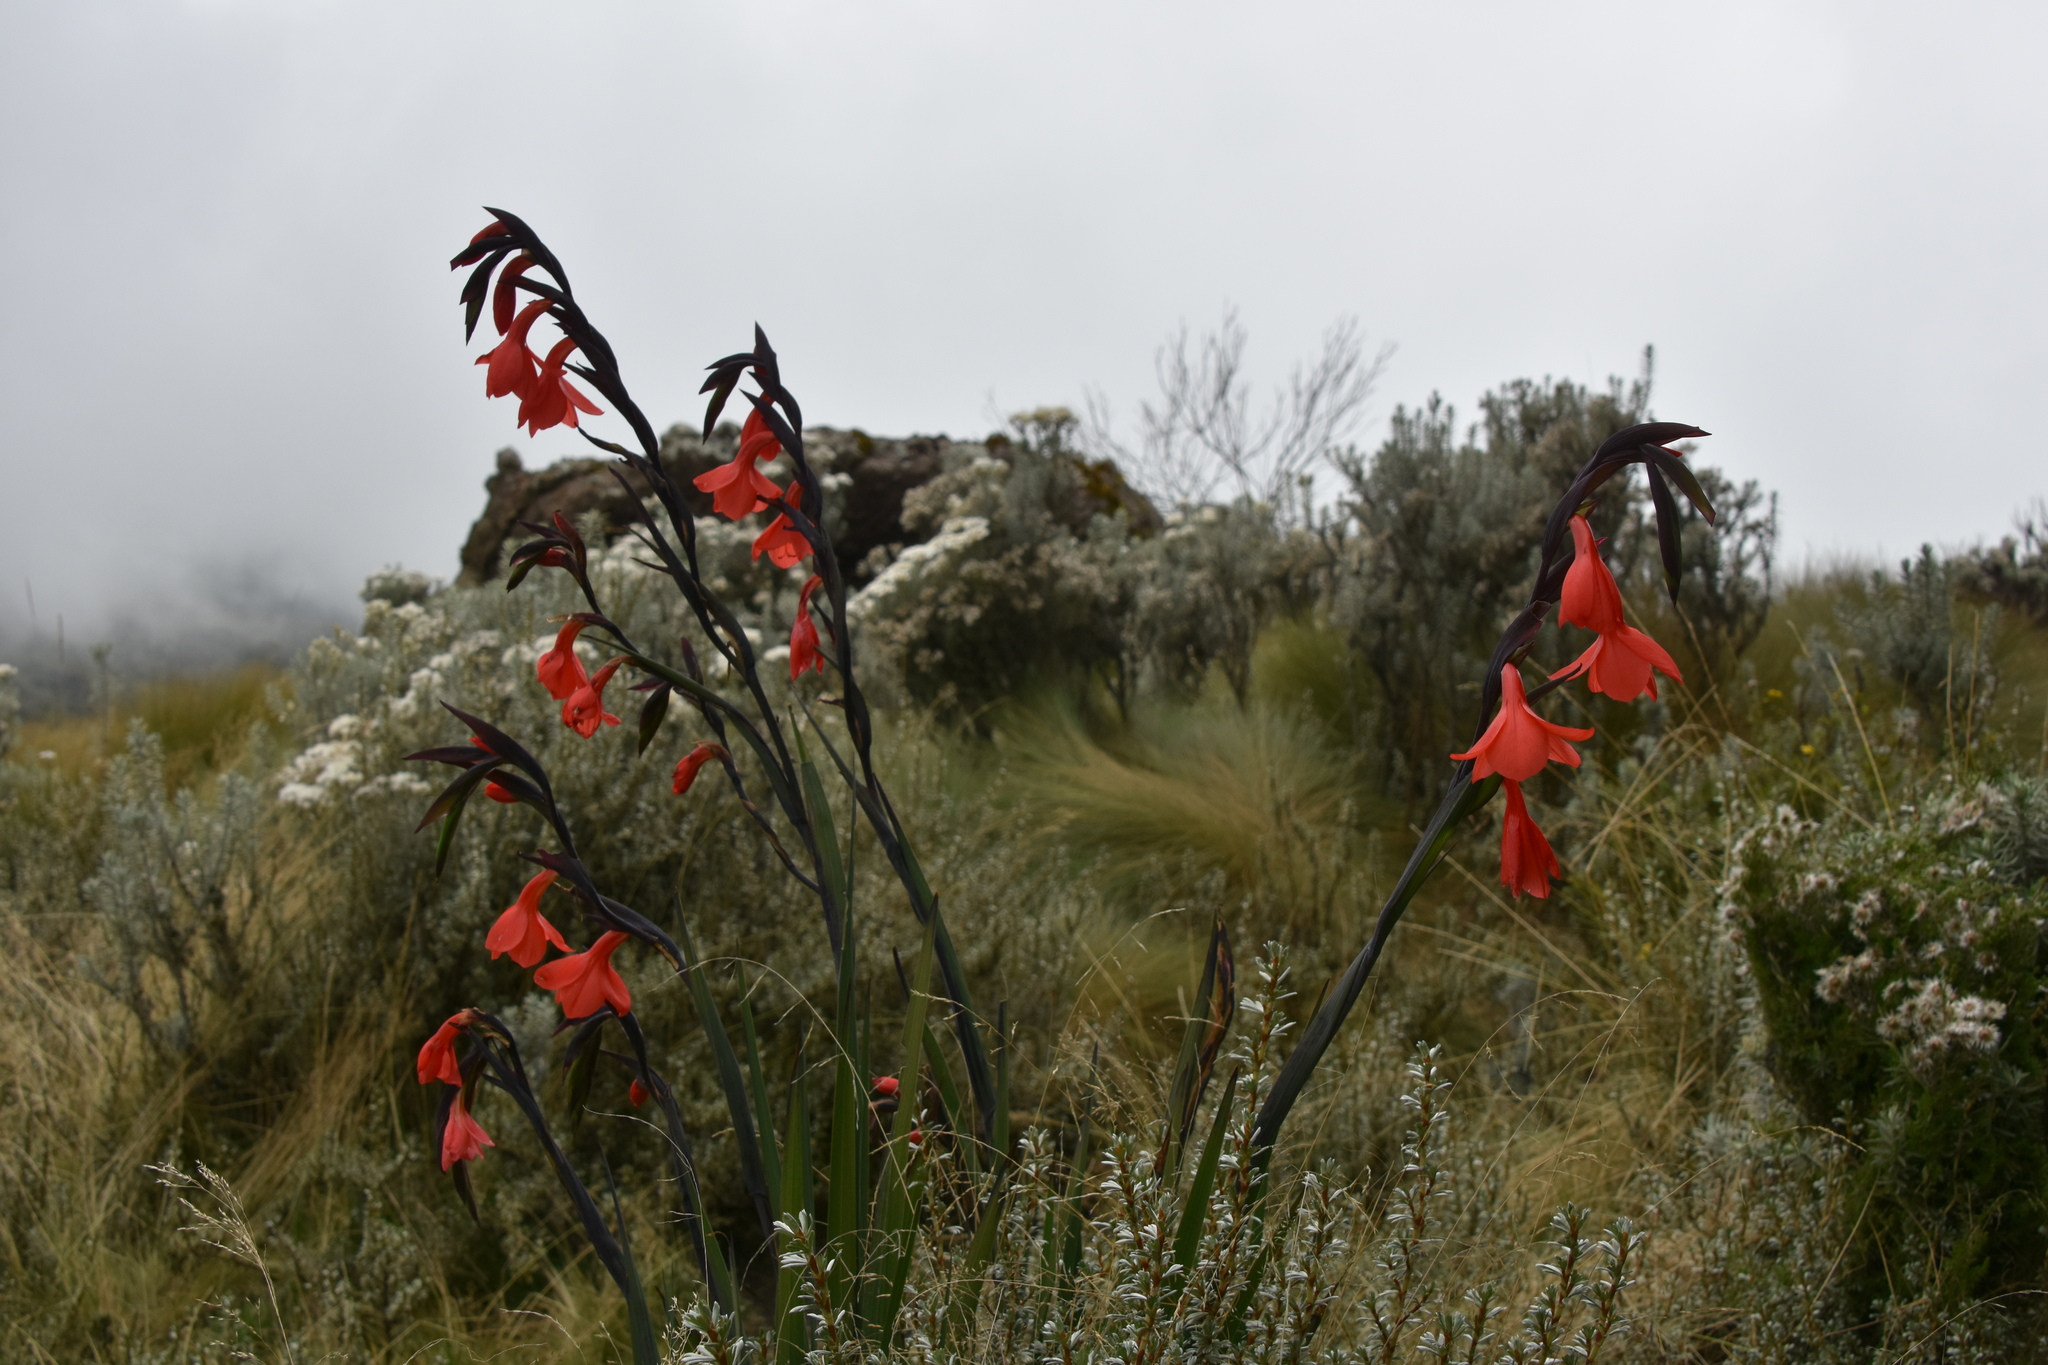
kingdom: Plantae
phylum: Tracheophyta
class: Liliopsida
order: Asparagales
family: Iridaceae
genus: Gladiolus
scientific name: Gladiolus watsonioides
